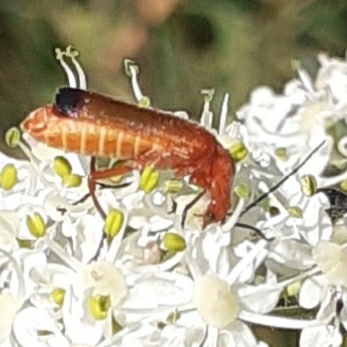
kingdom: Animalia
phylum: Arthropoda
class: Insecta
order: Coleoptera
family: Cantharidae
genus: Rhagonycha
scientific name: Rhagonycha fulva
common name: Common red soldier beetle
